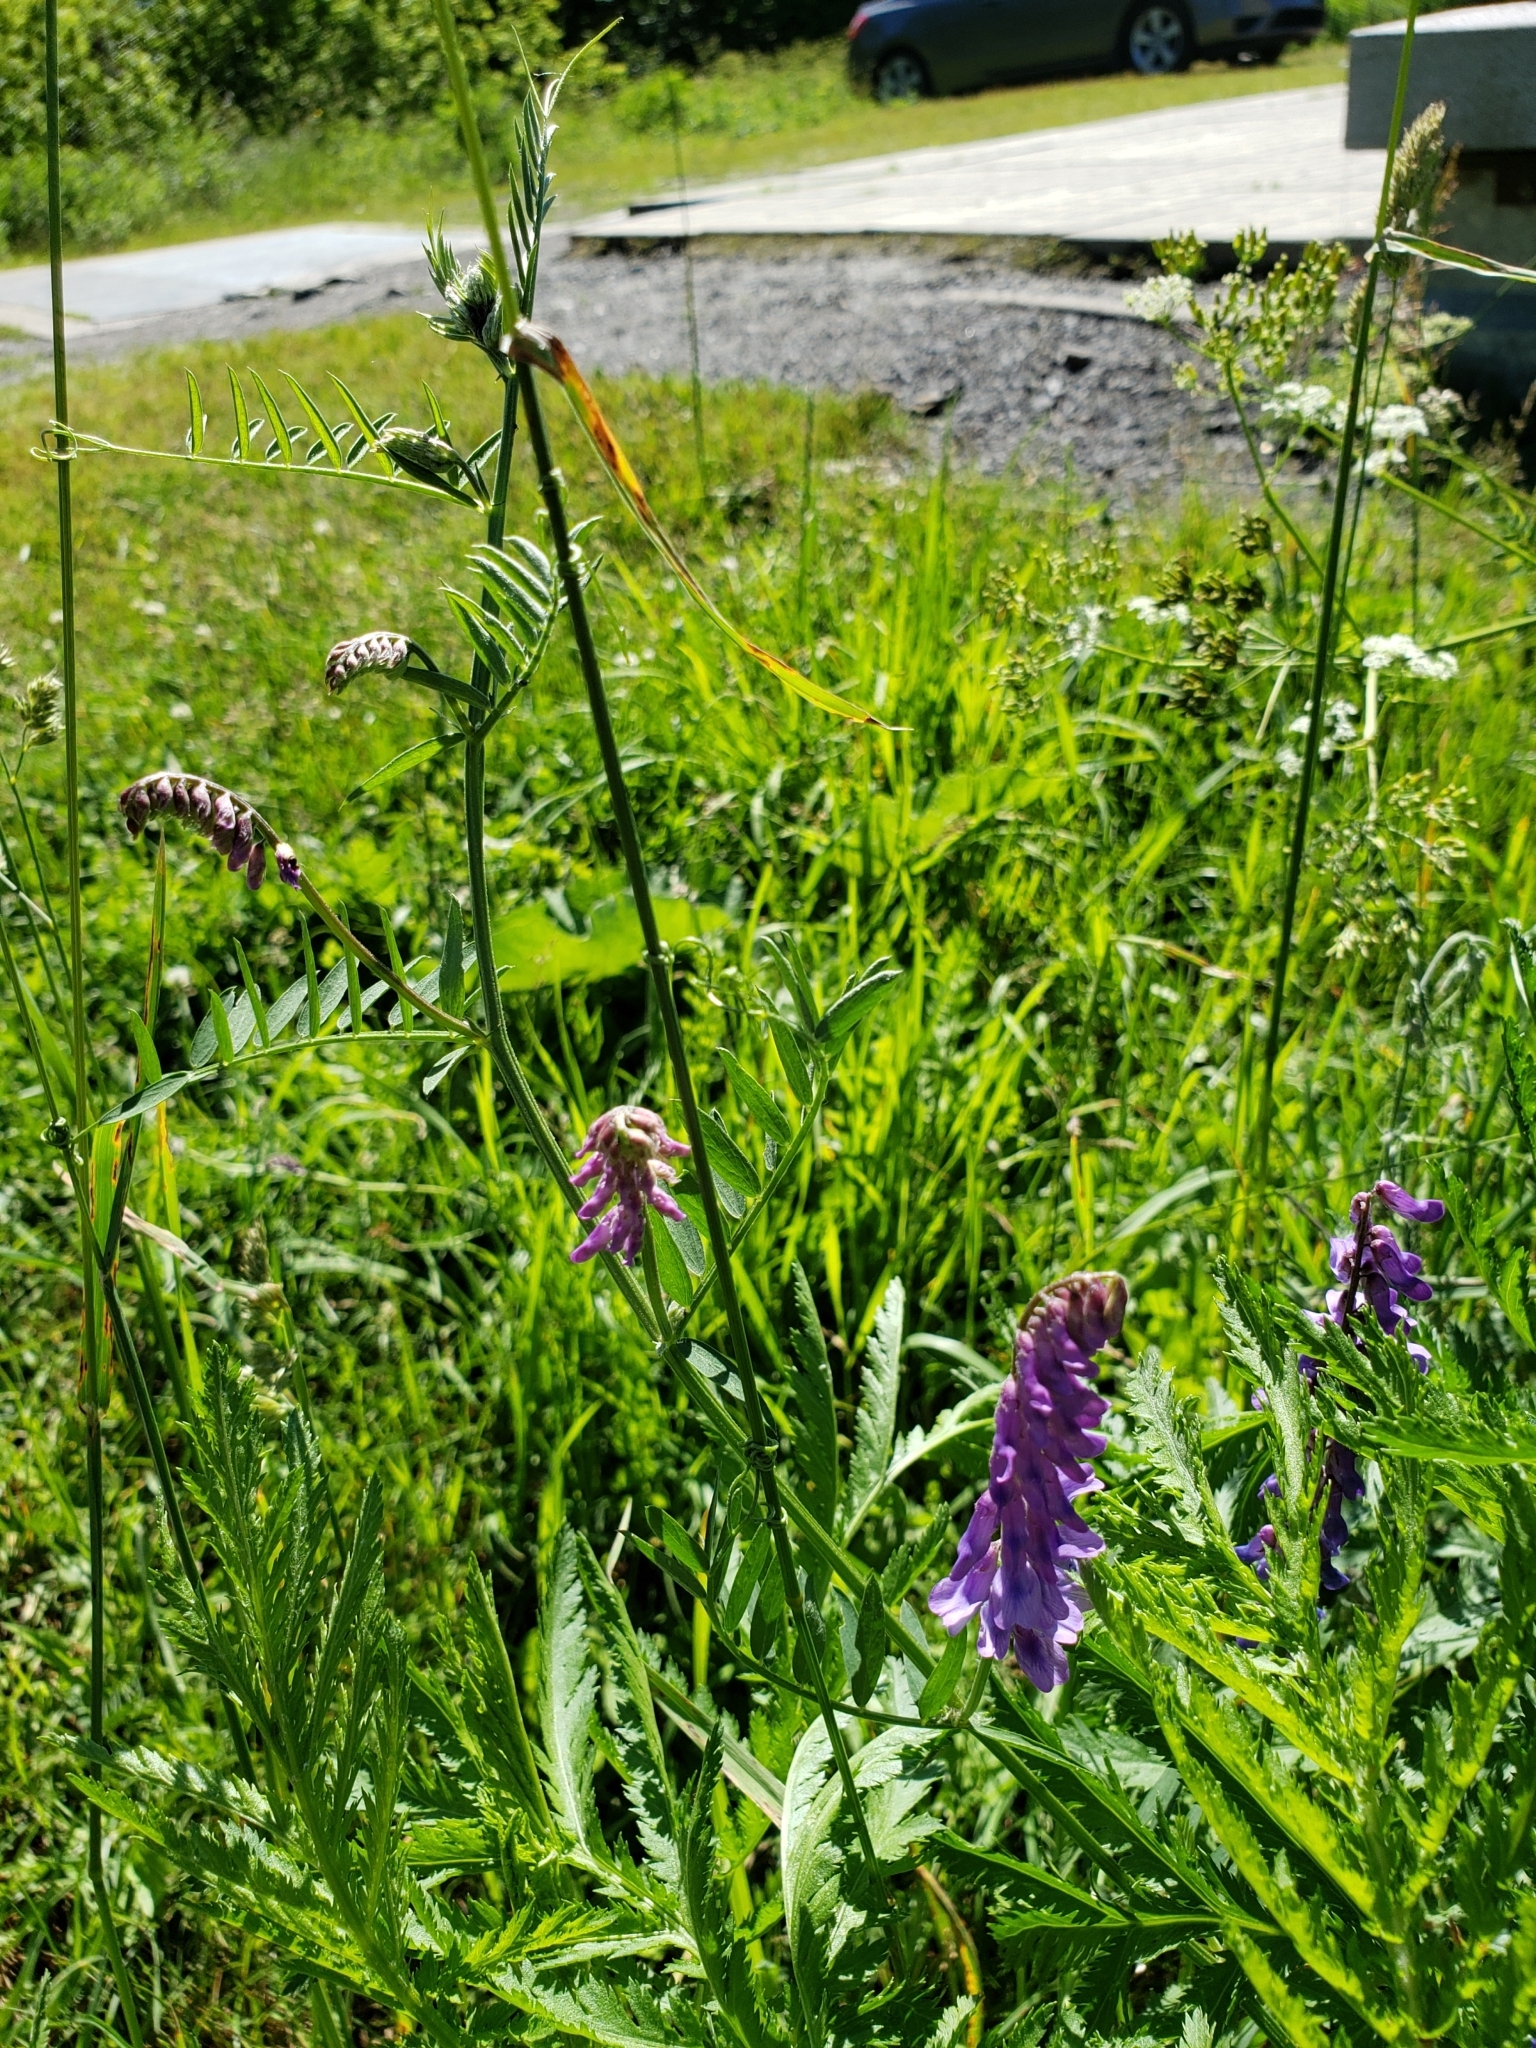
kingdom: Plantae
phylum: Tracheophyta
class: Magnoliopsida
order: Fabales
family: Fabaceae
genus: Vicia
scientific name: Vicia cracca
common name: Bird vetch
